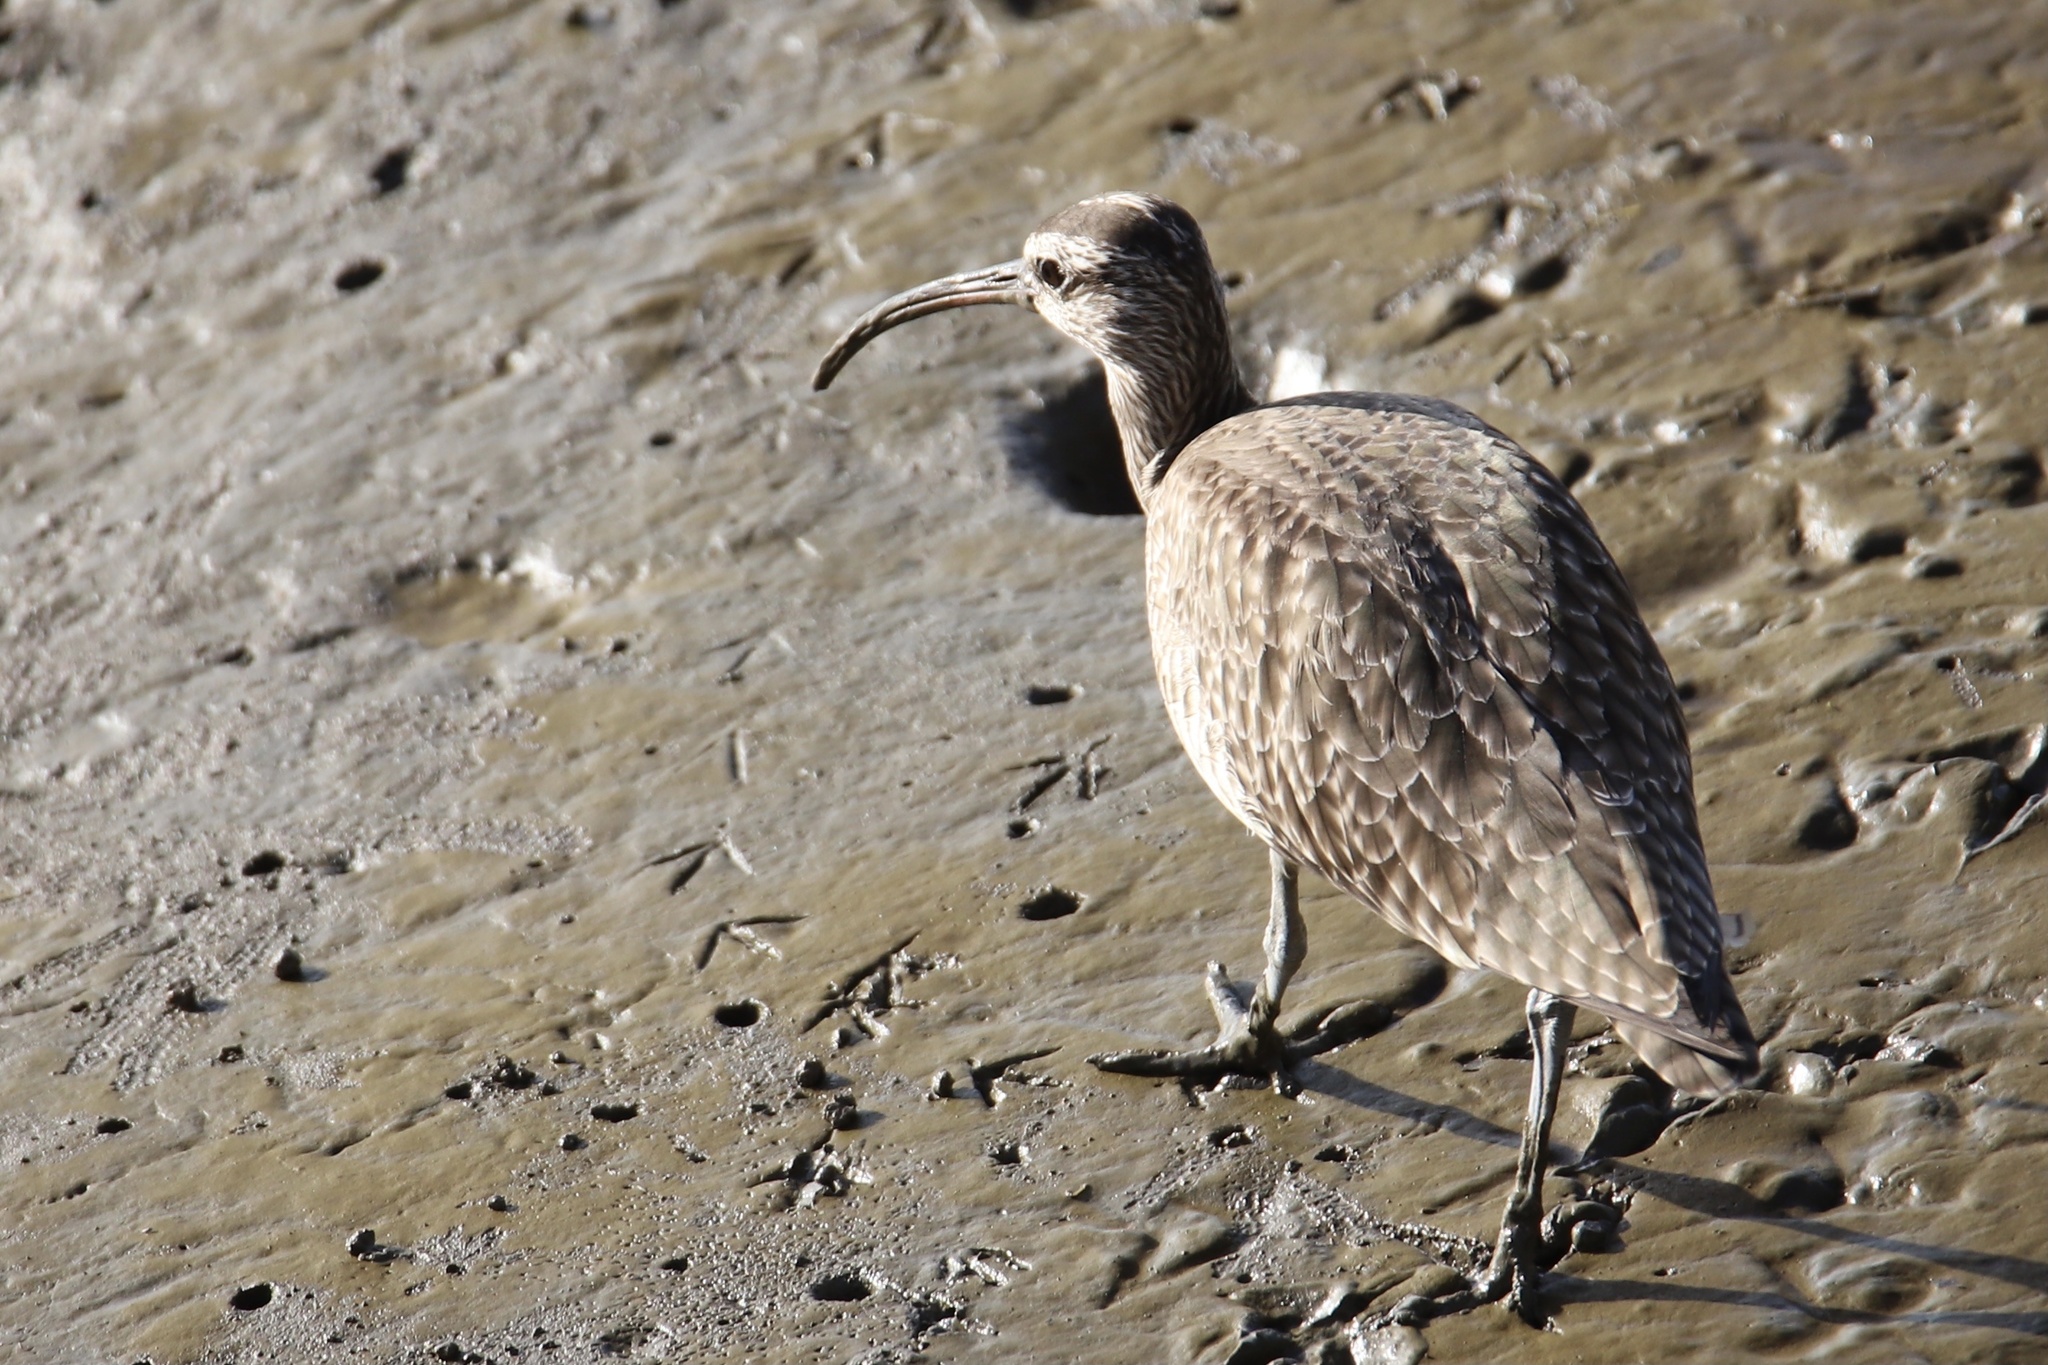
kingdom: Animalia
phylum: Chordata
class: Aves
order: Charadriiformes
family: Scolopacidae
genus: Numenius
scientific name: Numenius phaeopus
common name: Whimbrel
